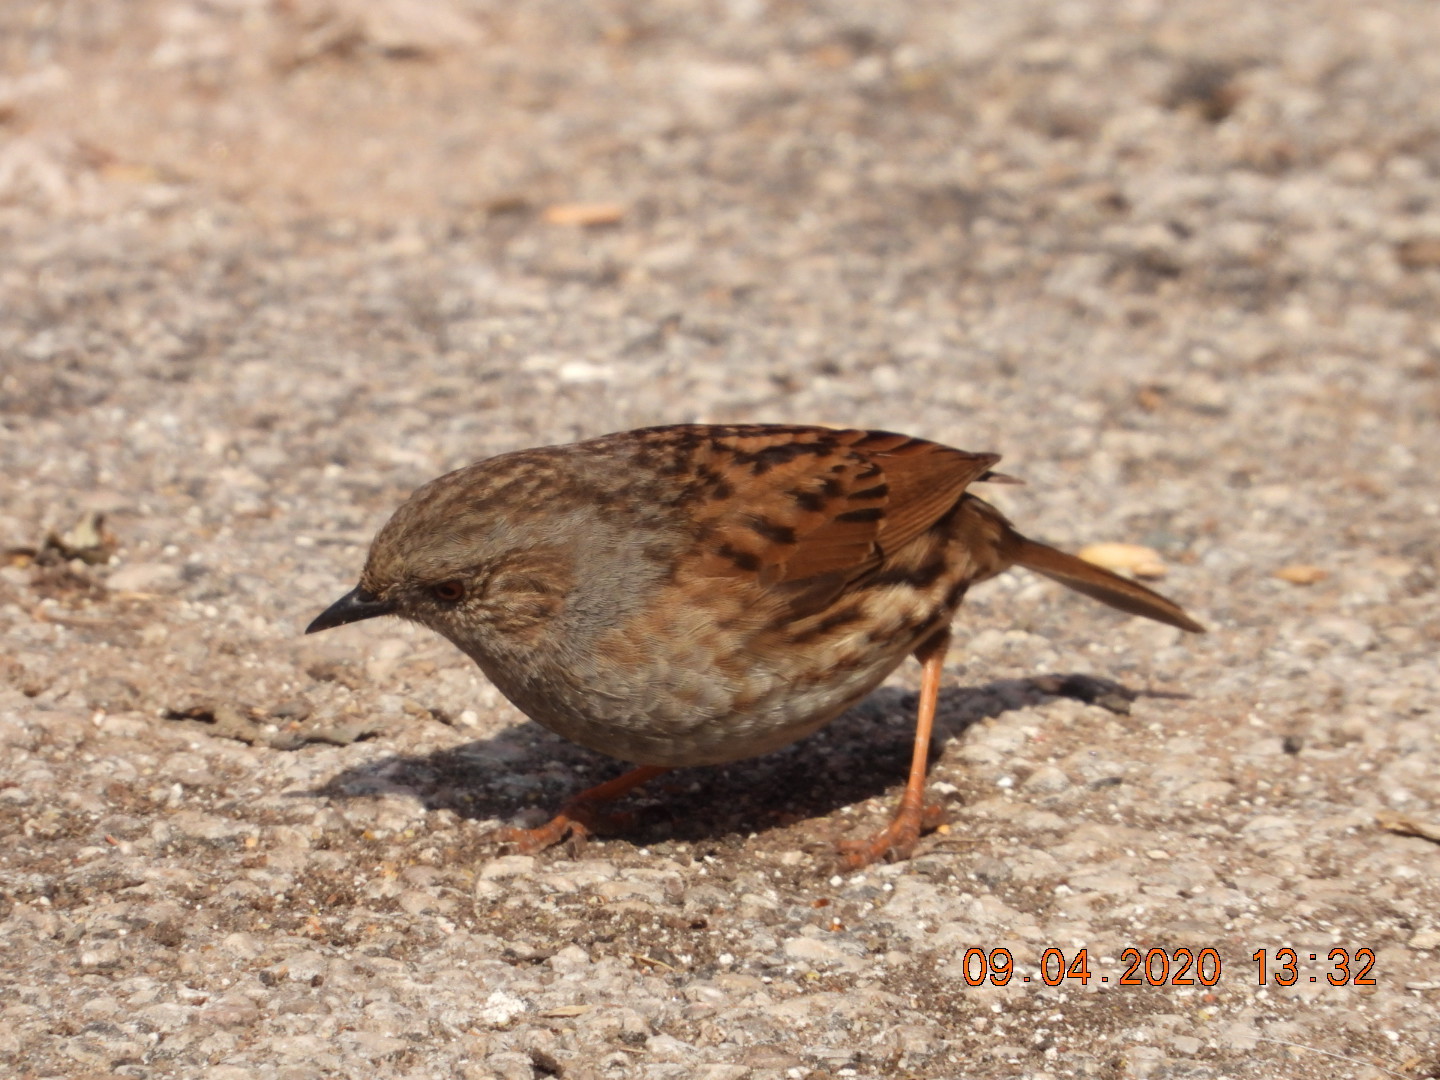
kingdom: Animalia
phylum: Chordata
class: Aves
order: Passeriformes
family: Prunellidae
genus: Prunella
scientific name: Prunella modularis
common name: Dunnock
